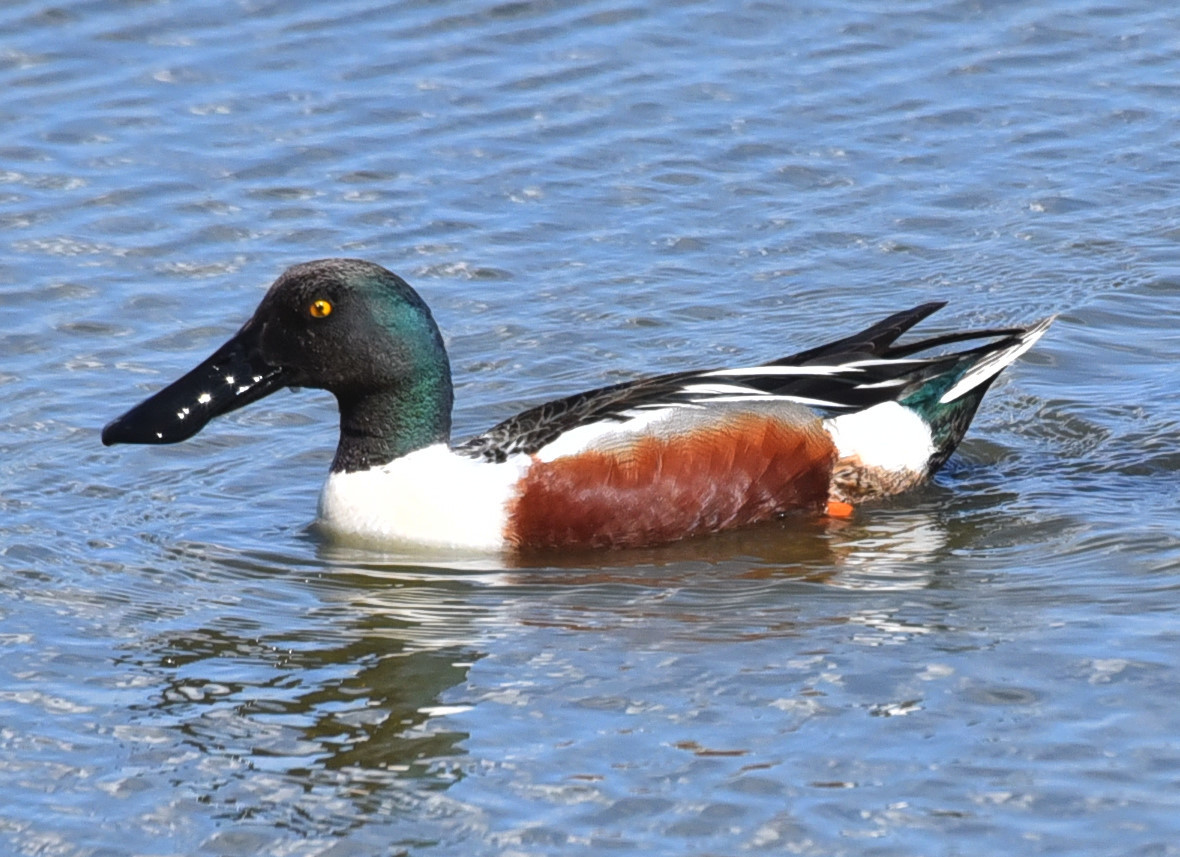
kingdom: Animalia
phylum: Chordata
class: Aves
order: Anseriformes
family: Anatidae
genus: Spatula
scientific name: Spatula clypeata
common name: Northern shoveler
